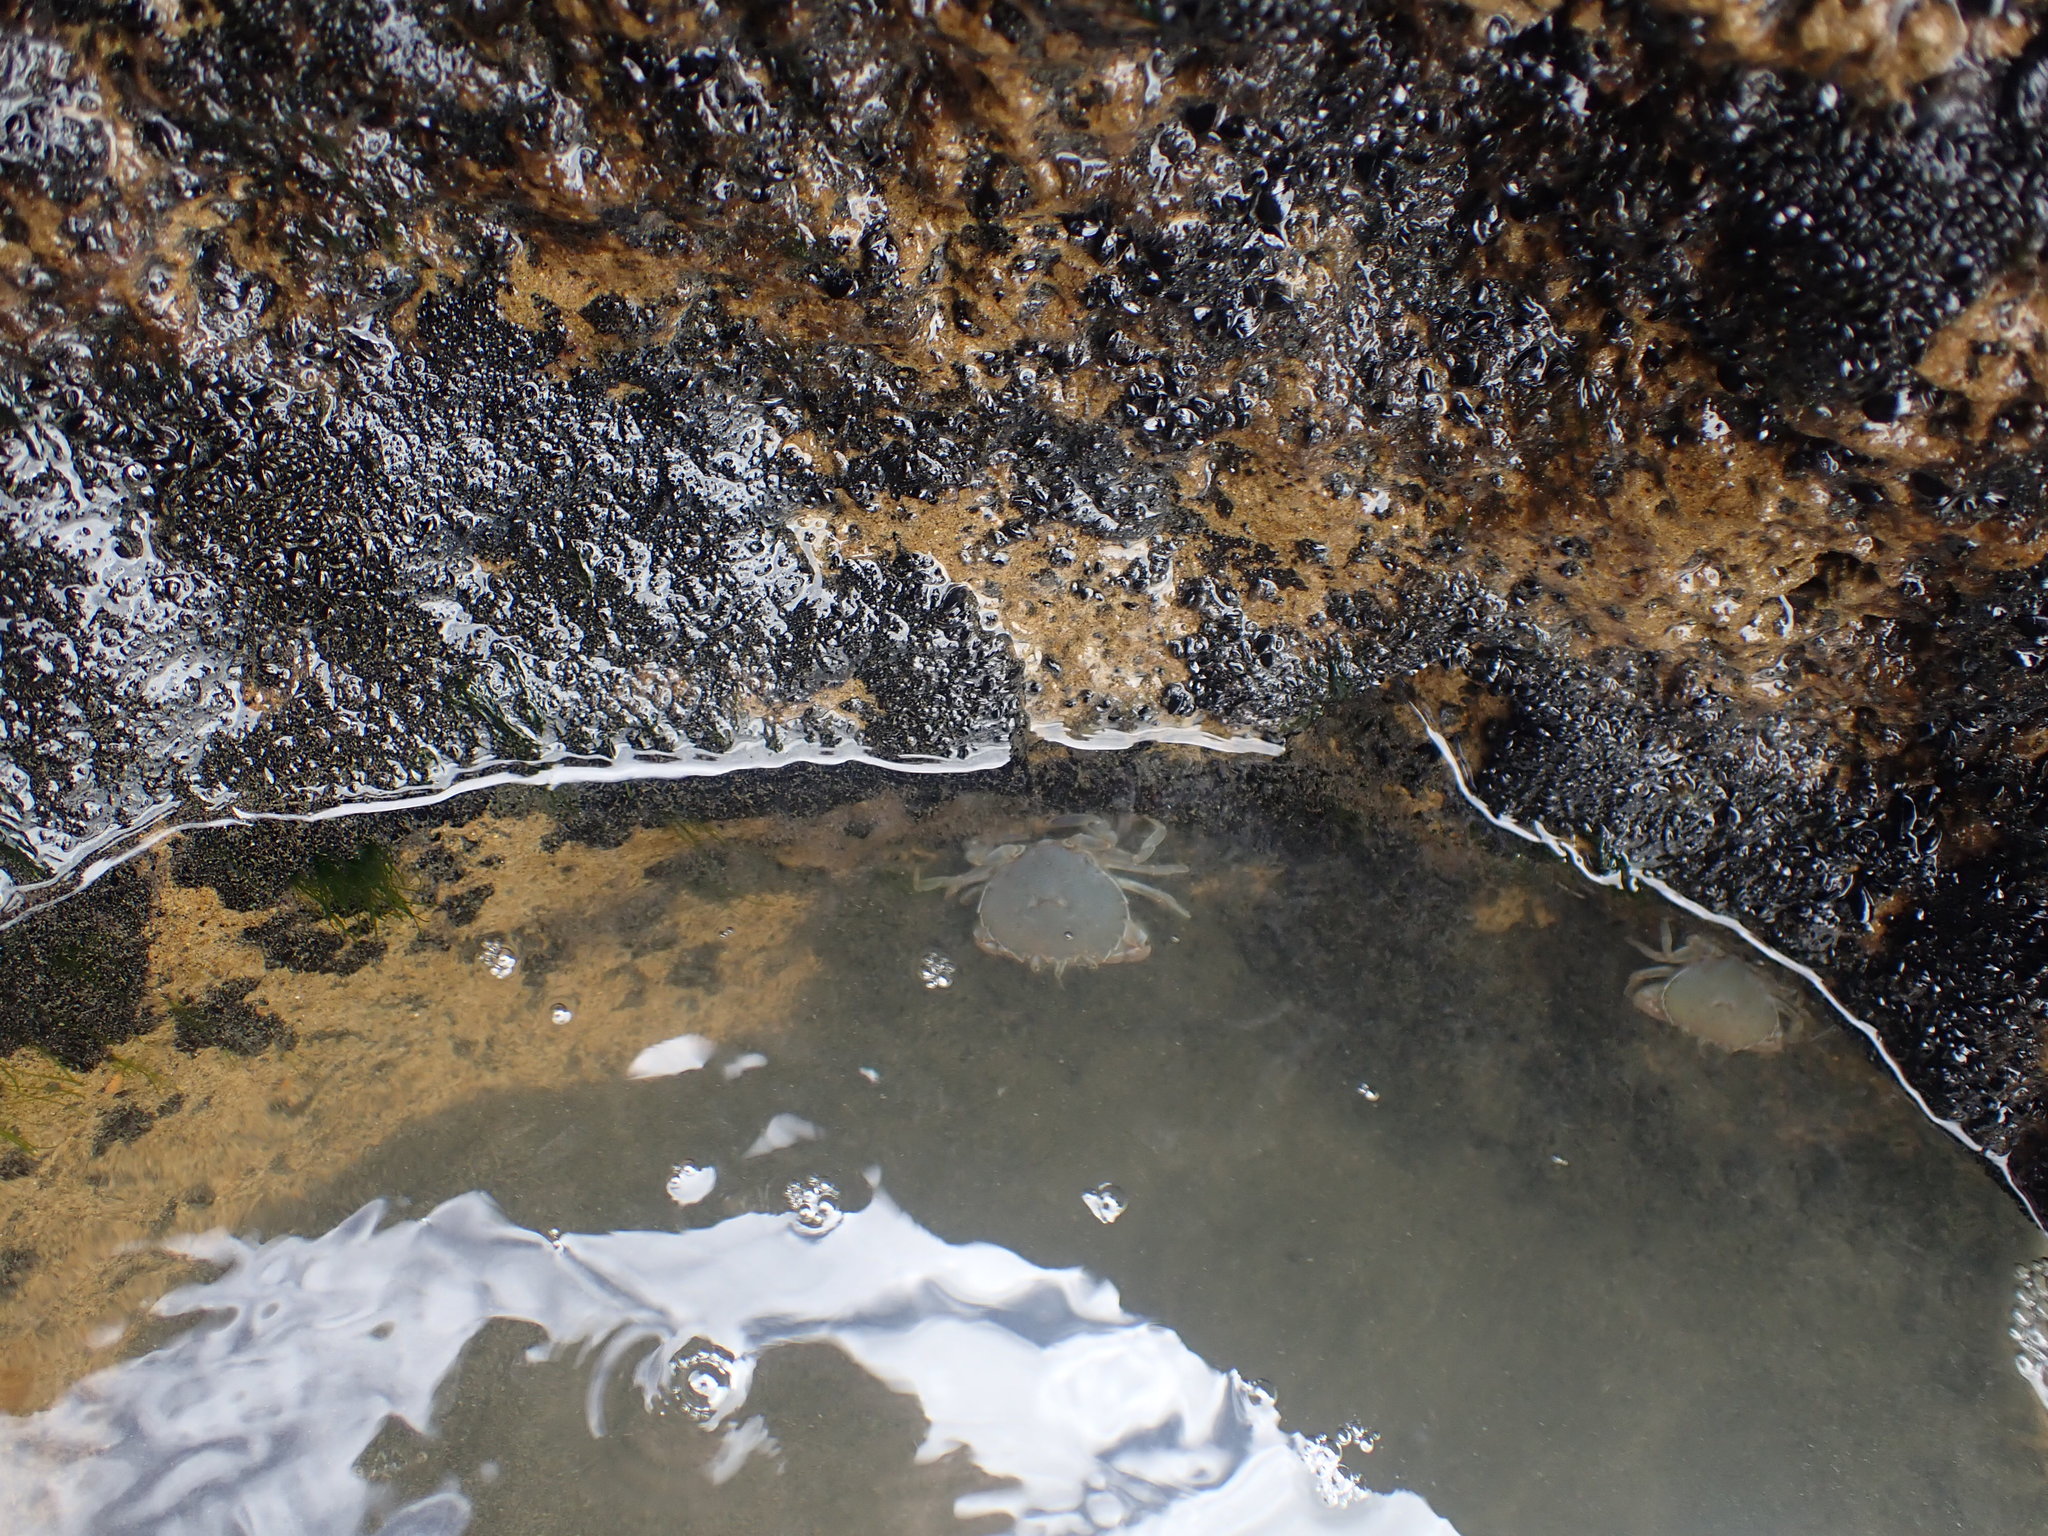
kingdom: Animalia
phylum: Arthropoda
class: Malacostraca
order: Decapoda
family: Ovalipidae
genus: Ovalipes
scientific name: Ovalipes catharus
